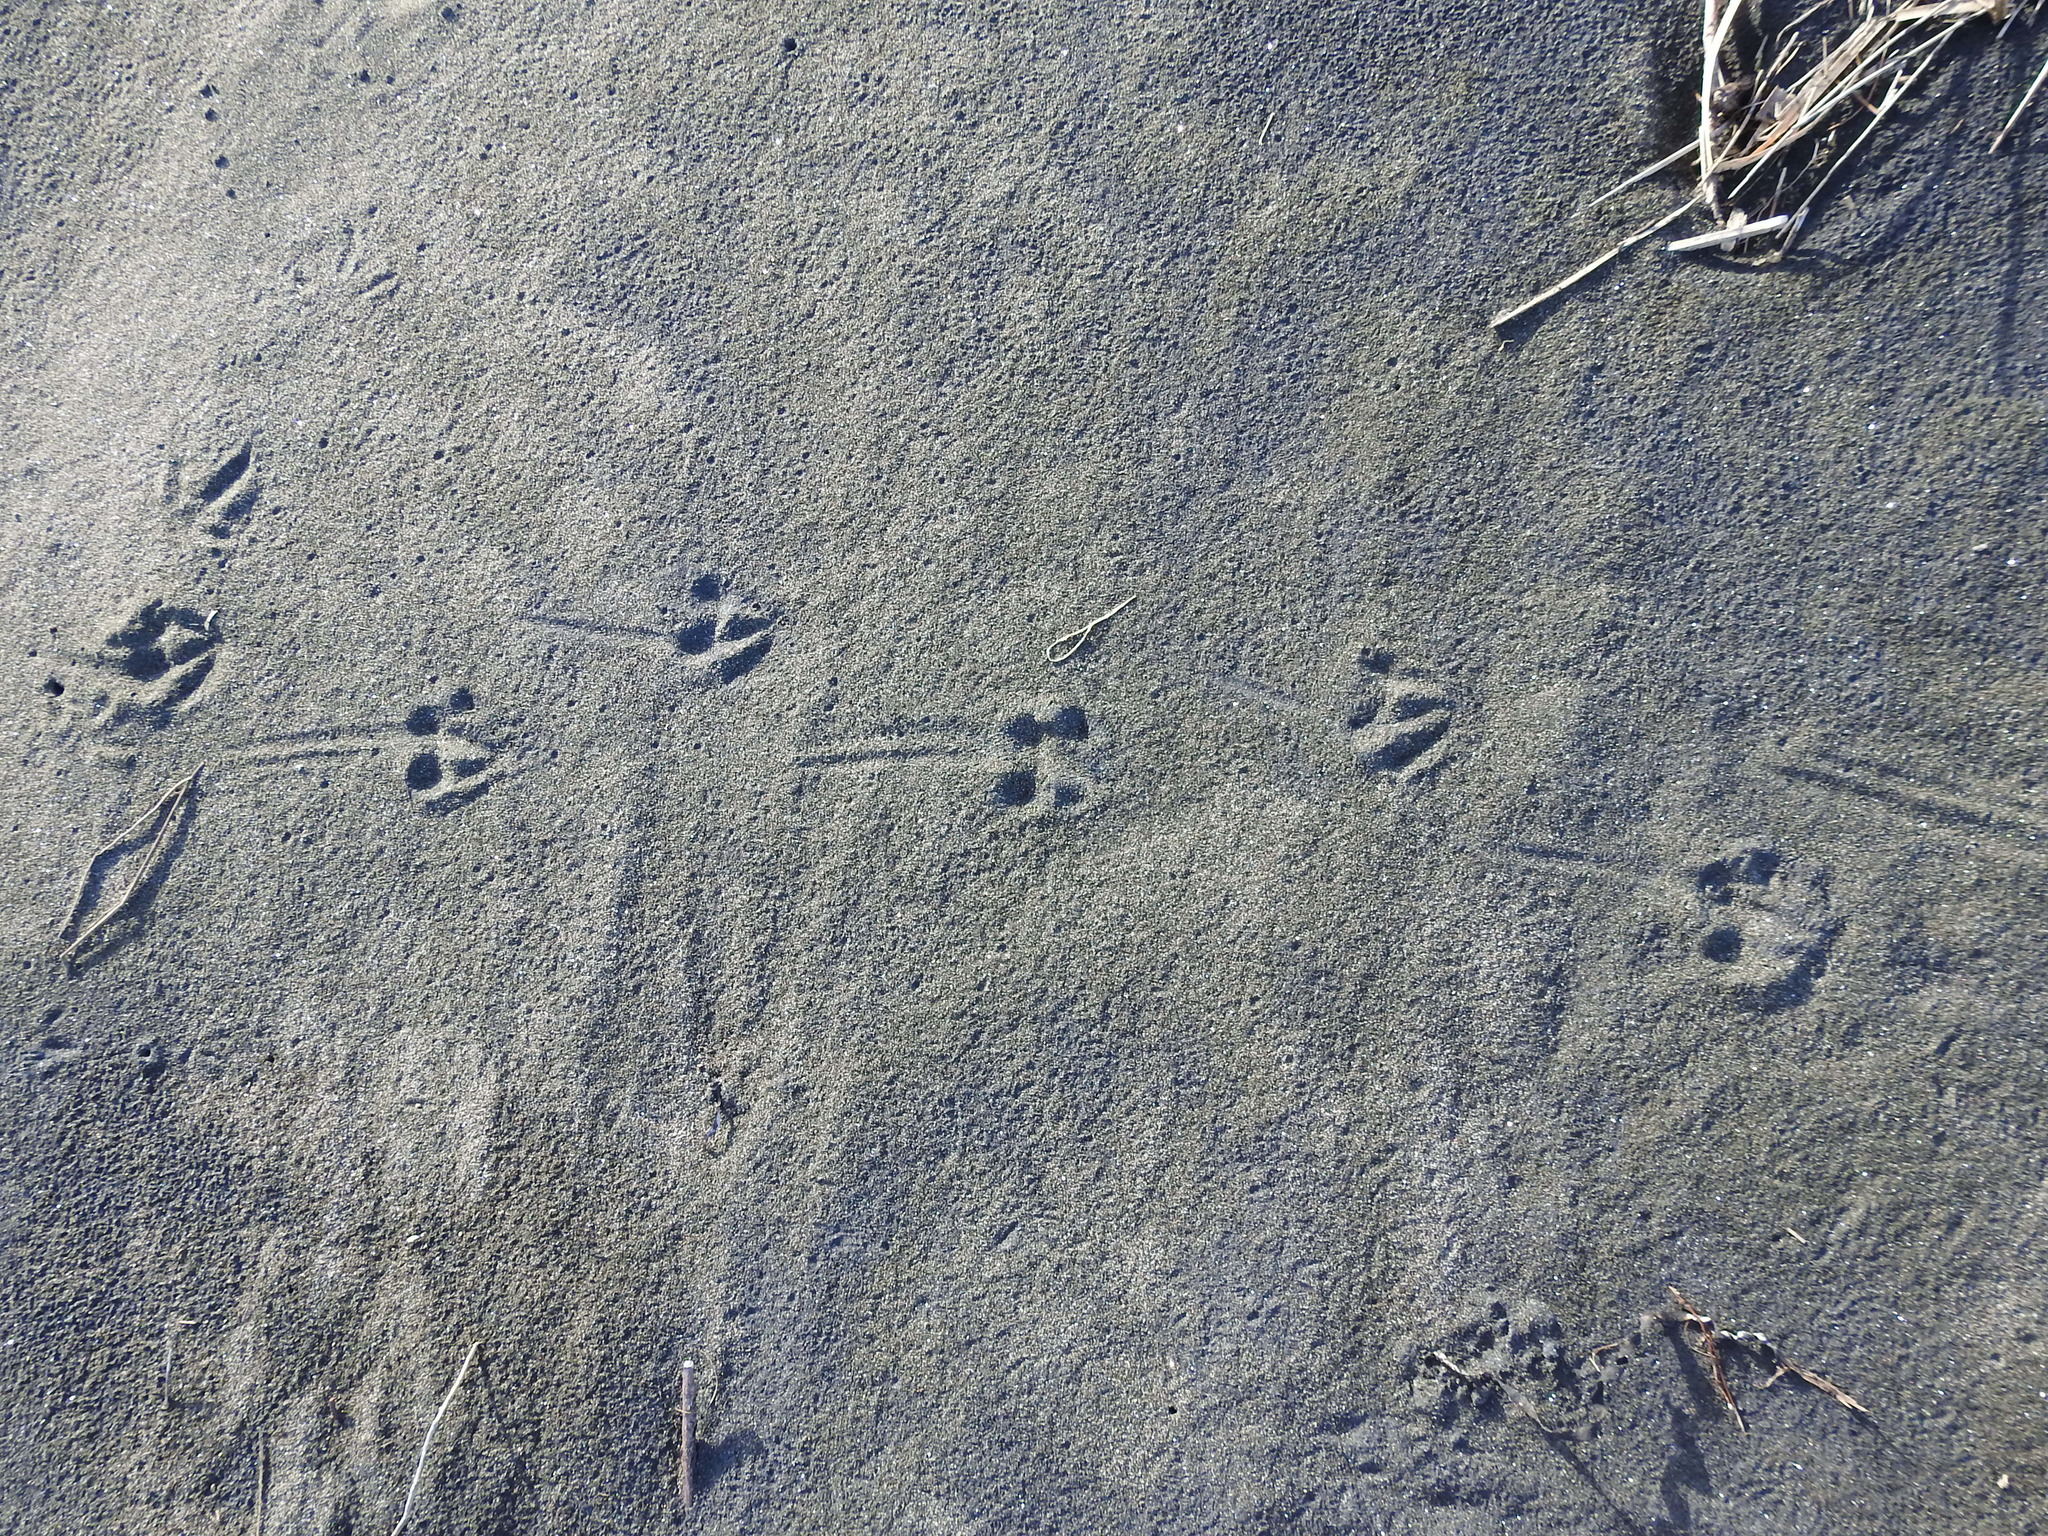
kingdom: Animalia
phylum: Chordata
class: Aves
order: Sphenisciformes
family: Spheniscidae
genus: Eudyptula
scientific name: Eudyptula minor
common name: Little penguin
